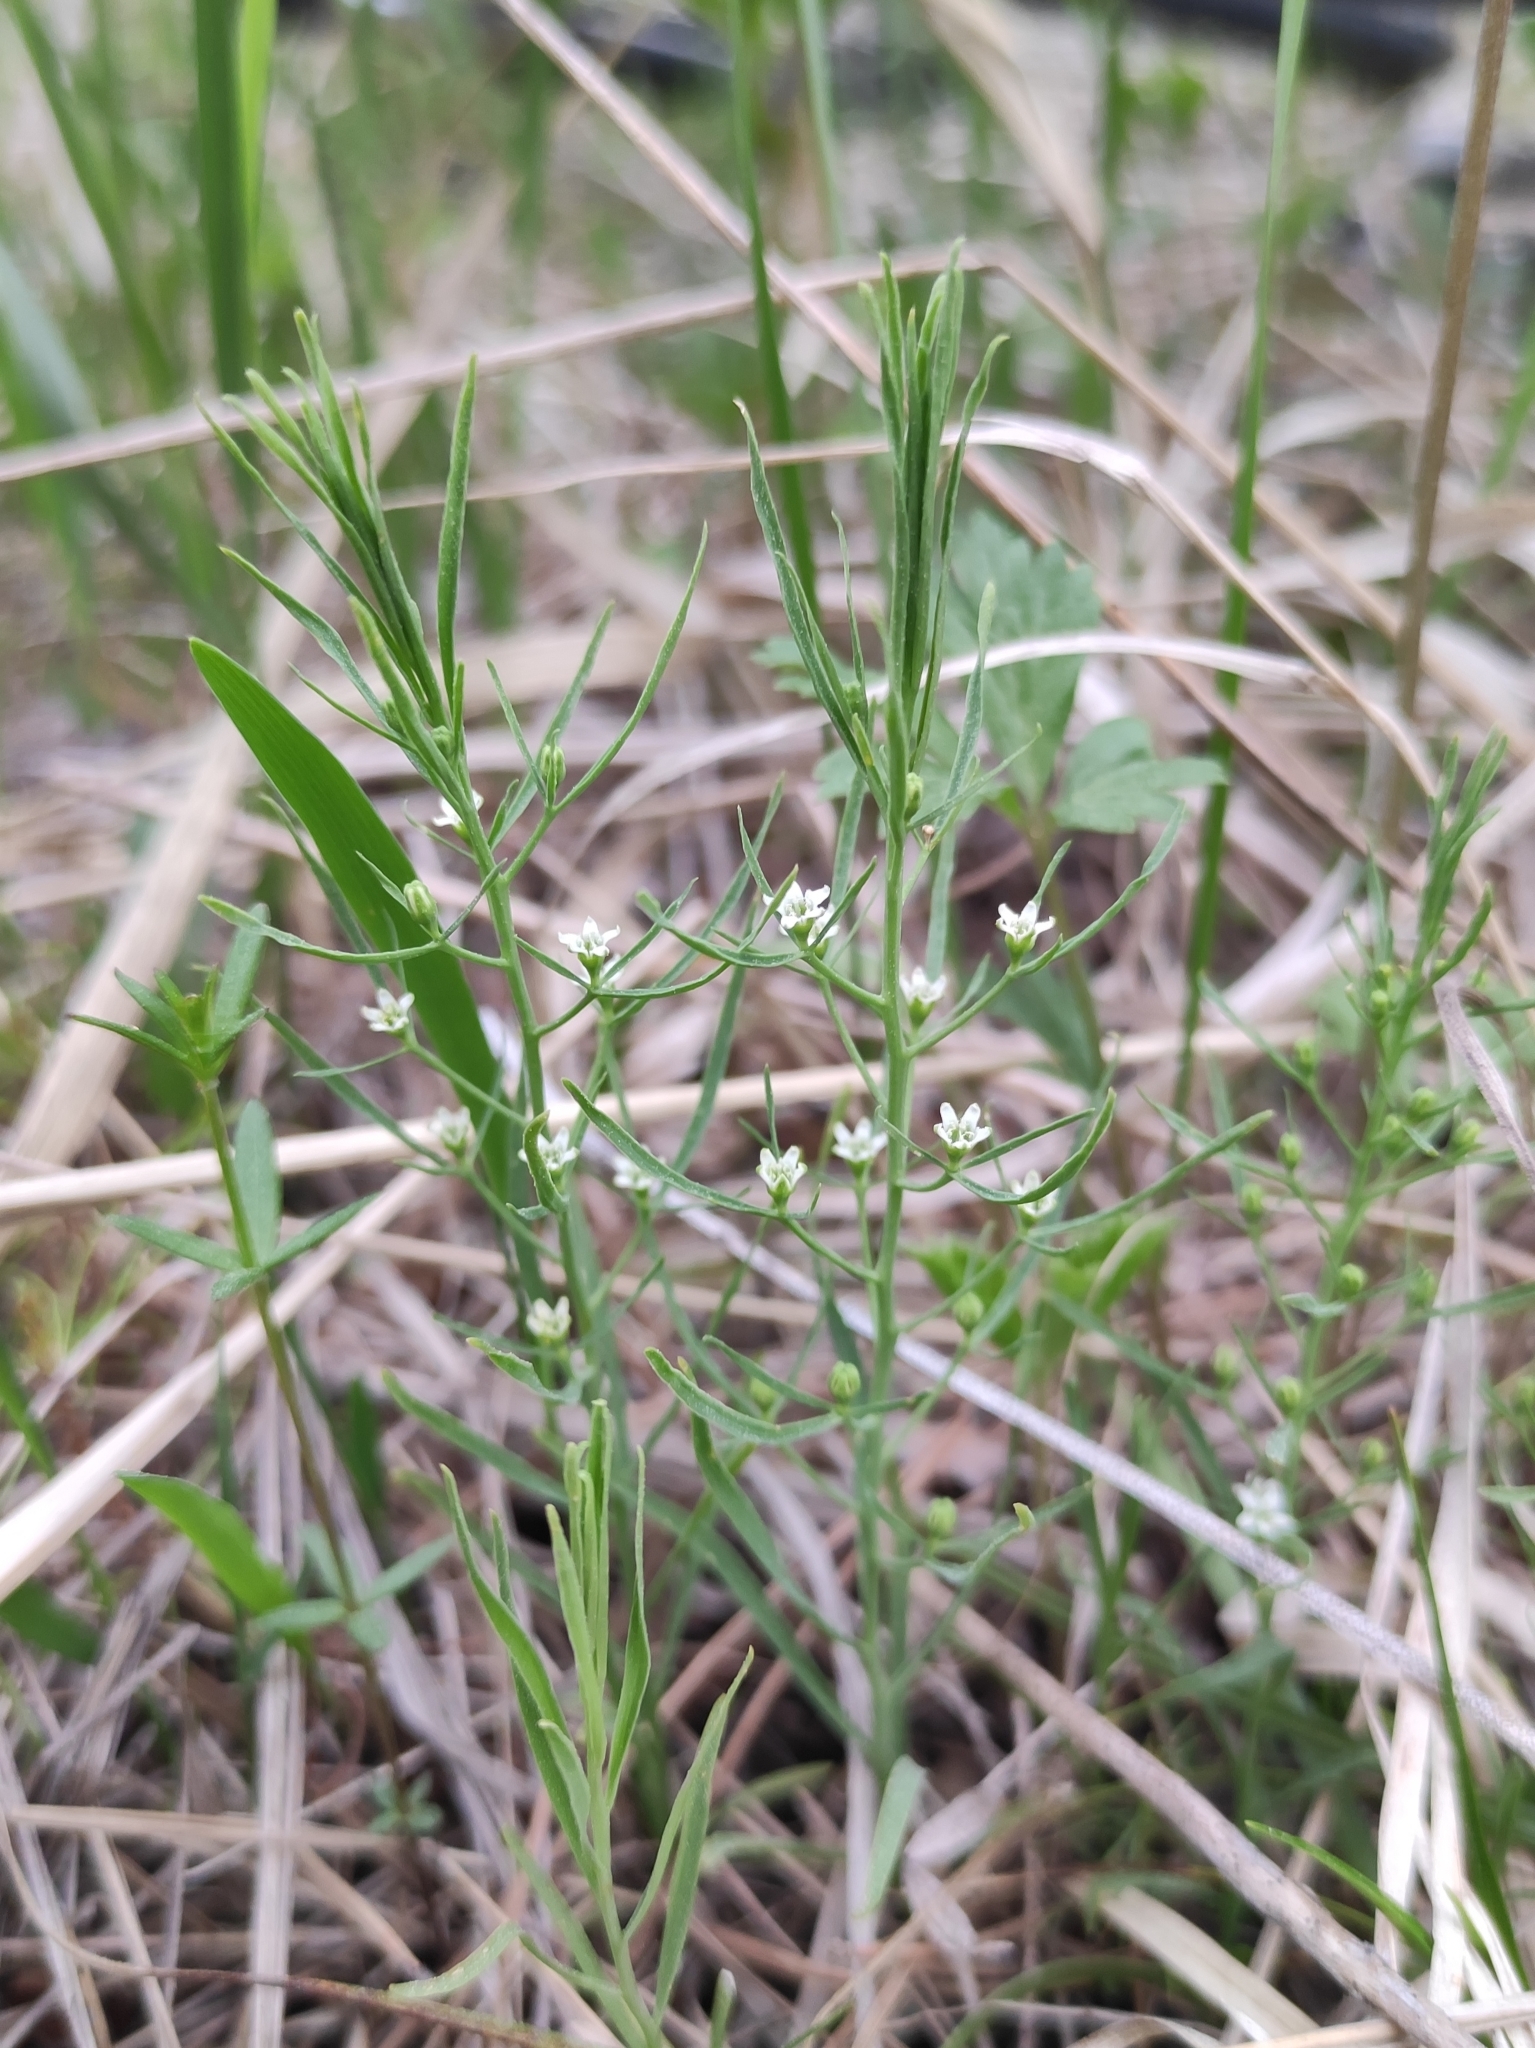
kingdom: Plantae
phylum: Tracheophyta
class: Magnoliopsida
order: Santalales
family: Thesiaceae
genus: Thesium
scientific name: Thesium repens
